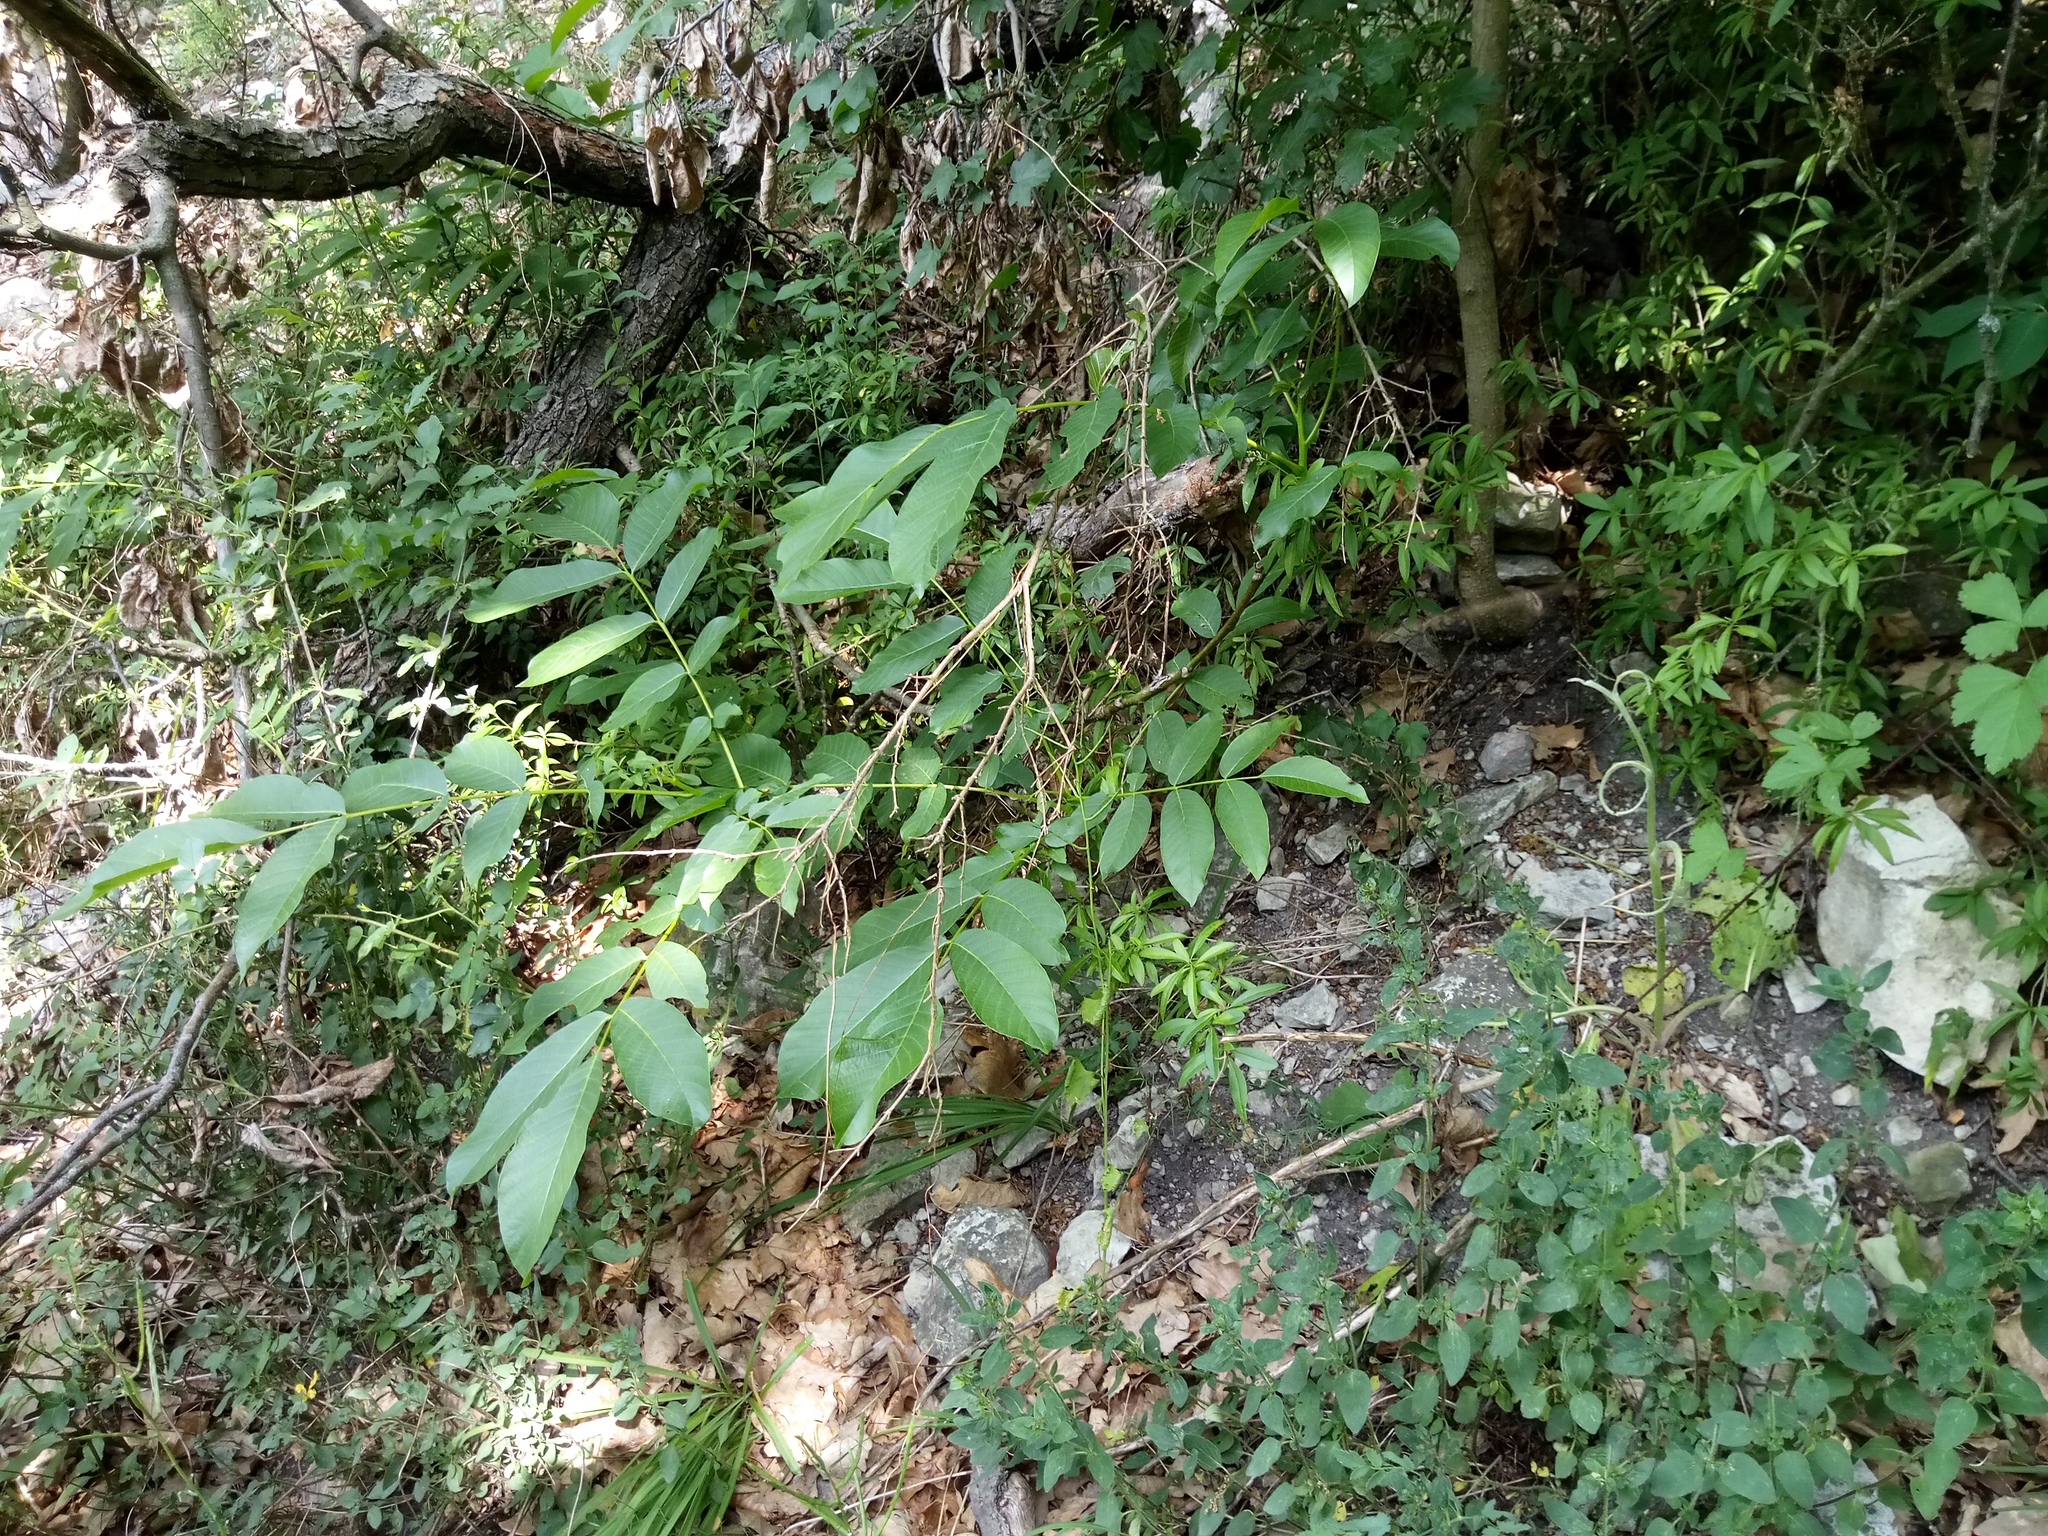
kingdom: Plantae
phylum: Tracheophyta
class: Magnoliopsida
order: Fagales
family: Juglandaceae
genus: Juglans
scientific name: Juglans regia
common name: Walnut
